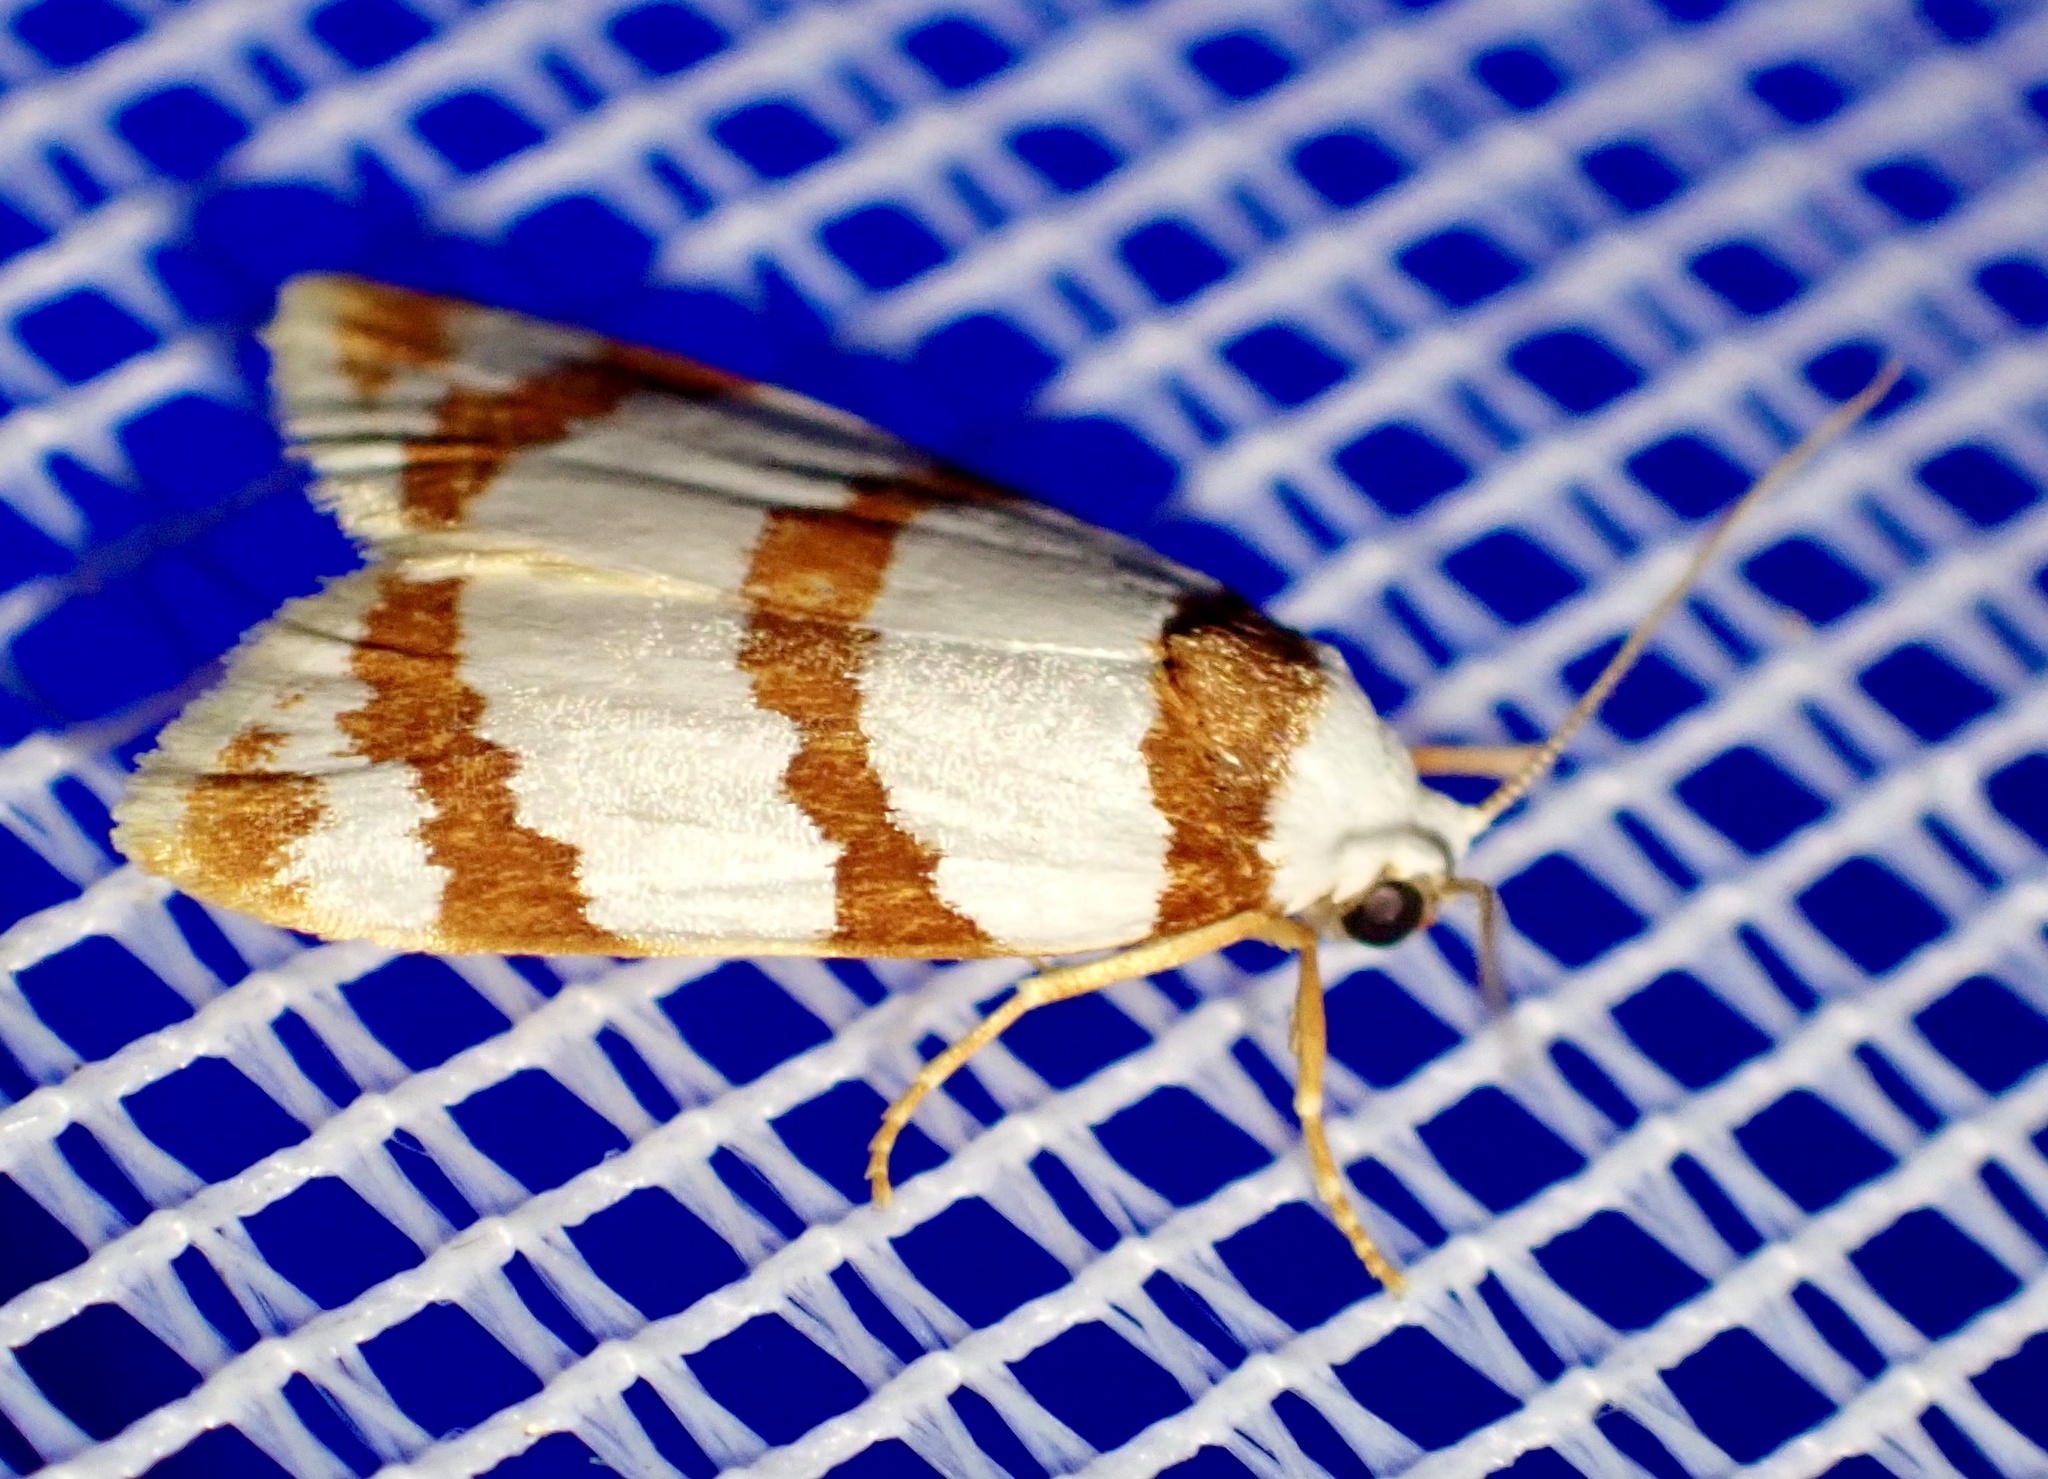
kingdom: Animalia
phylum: Arthropoda
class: Insecta
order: Lepidoptera
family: Erebidae
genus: Thermograpta
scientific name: Thermograpta rufizonata
